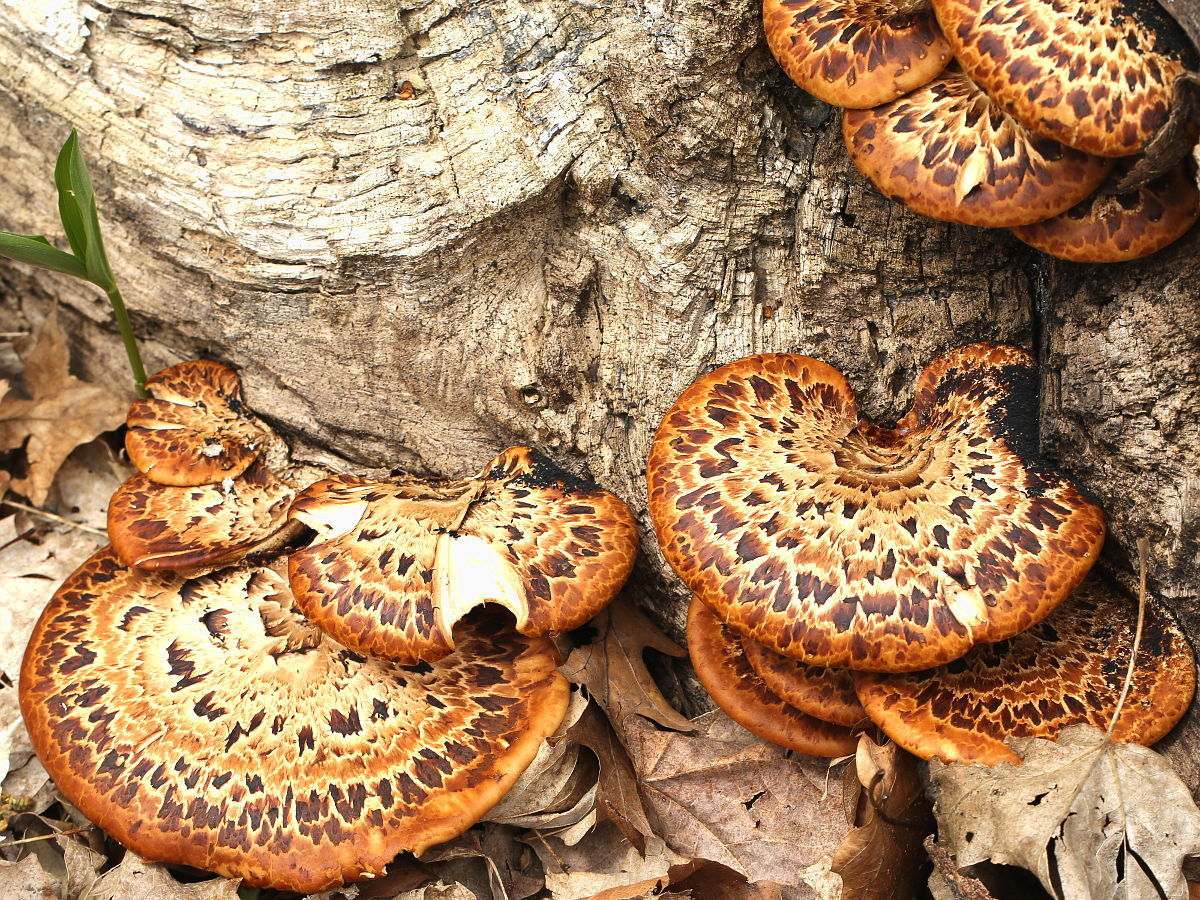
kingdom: Fungi
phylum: Basidiomycota
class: Agaricomycetes
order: Polyporales
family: Polyporaceae
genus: Cerioporus
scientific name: Cerioporus squamosus
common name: Dryad's saddle
